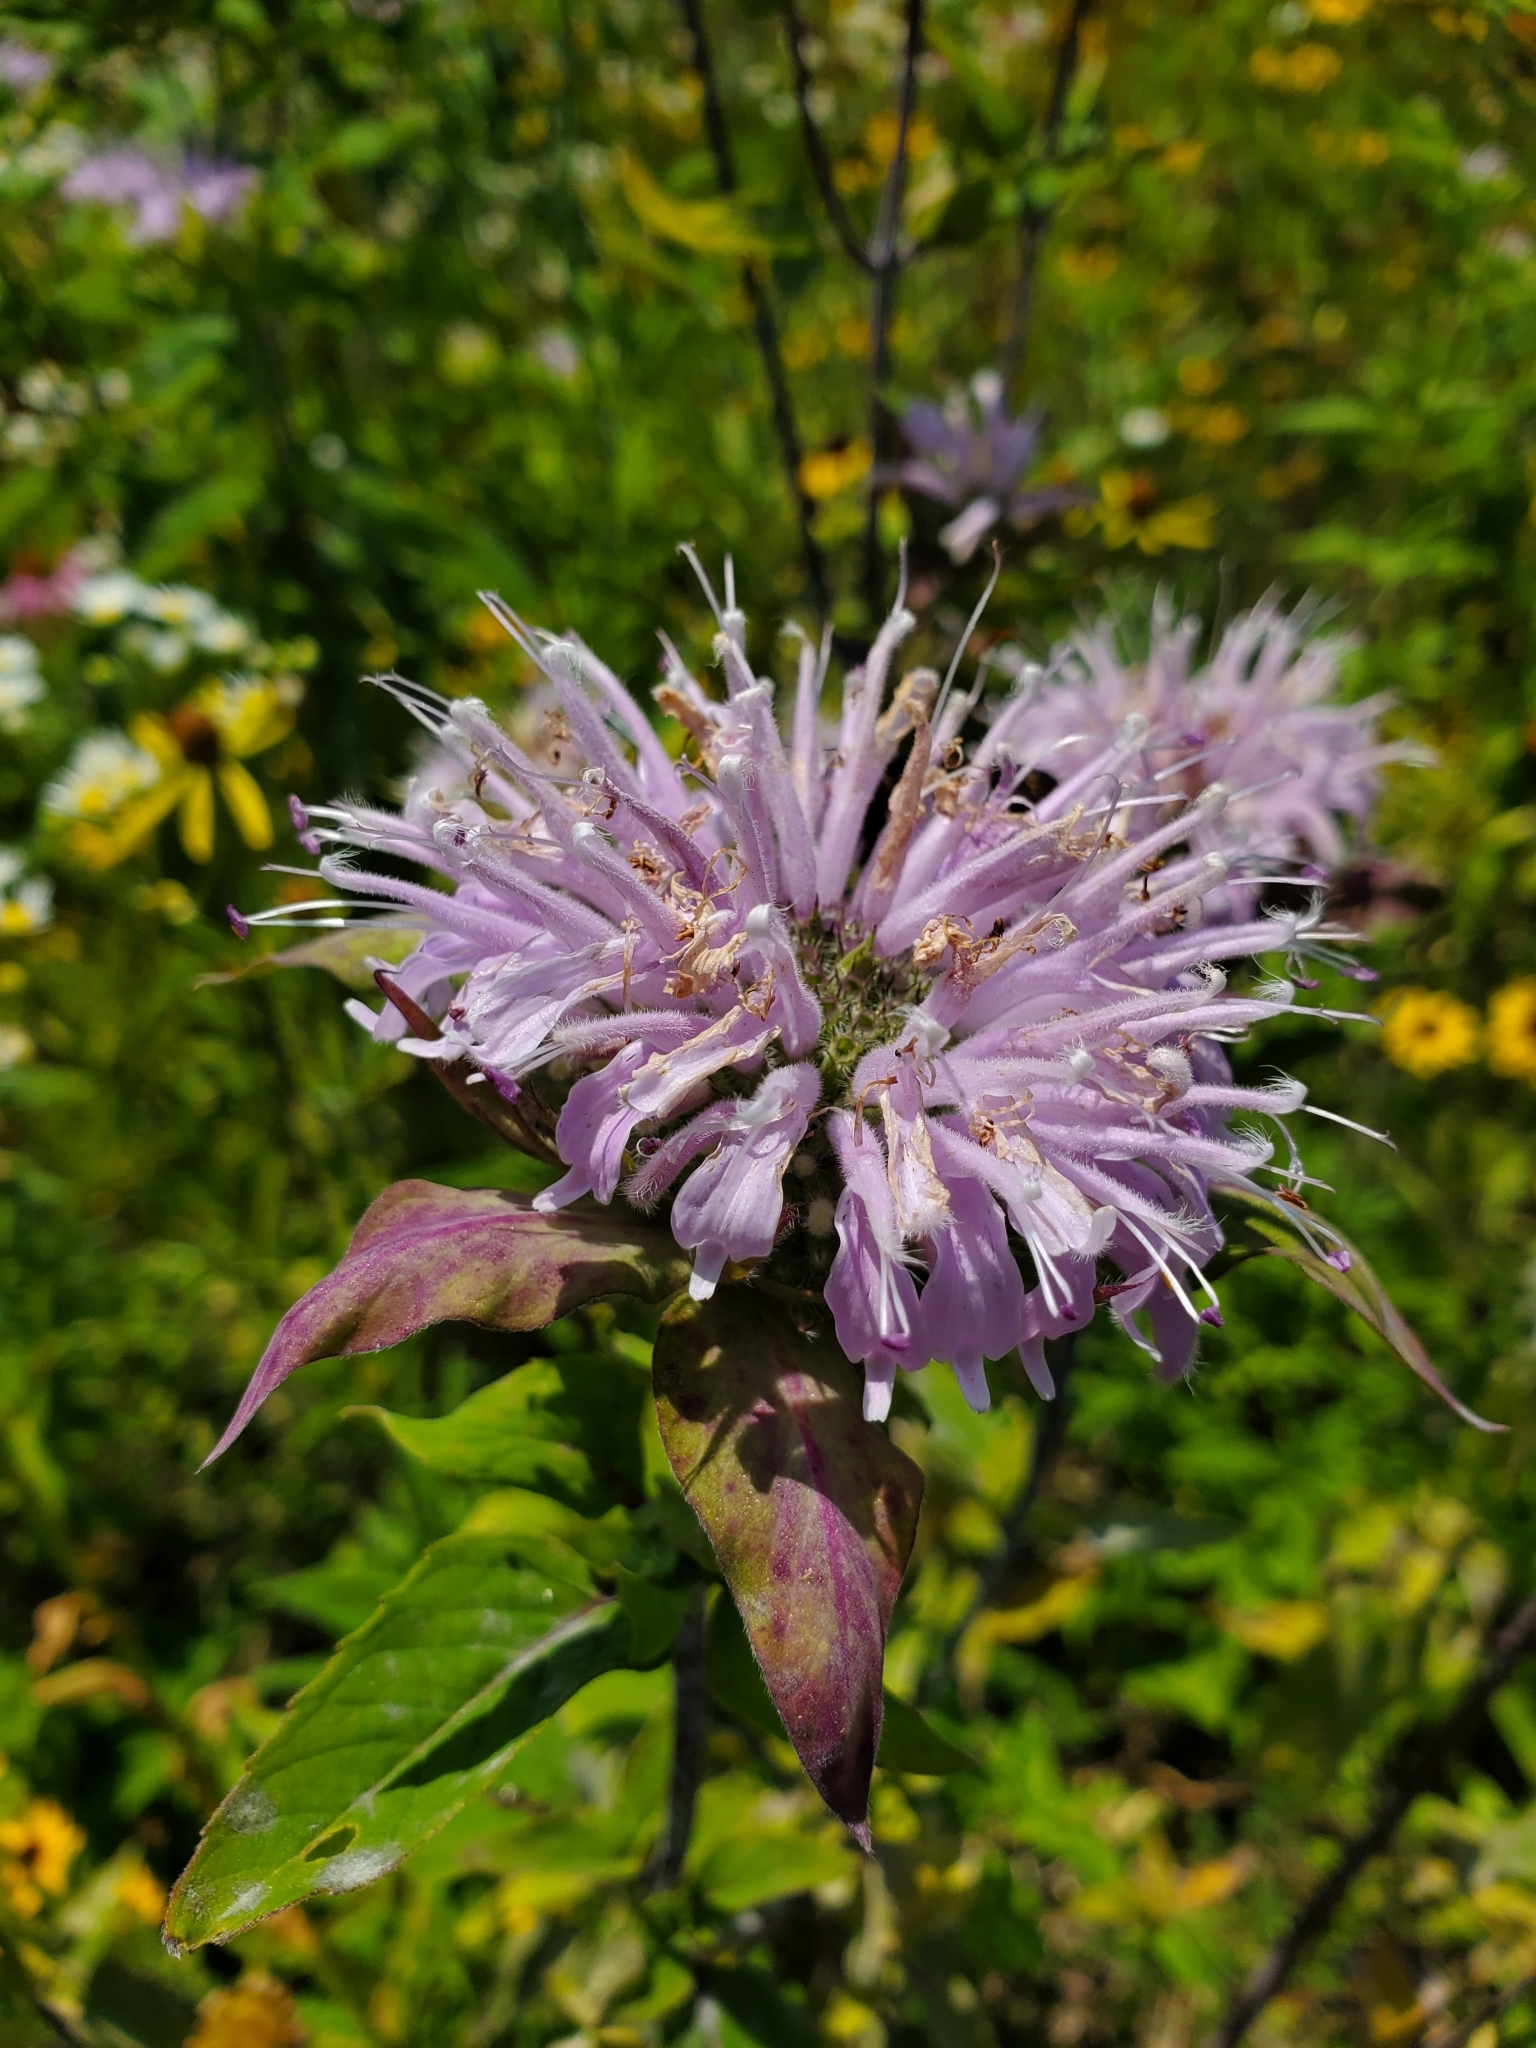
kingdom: Plantae
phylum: Tracheophyta
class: Magnoliopsida
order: Lamiales
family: Lamiaceae
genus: Monarda
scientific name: Monarda fistulosa
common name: Purple beebalm
